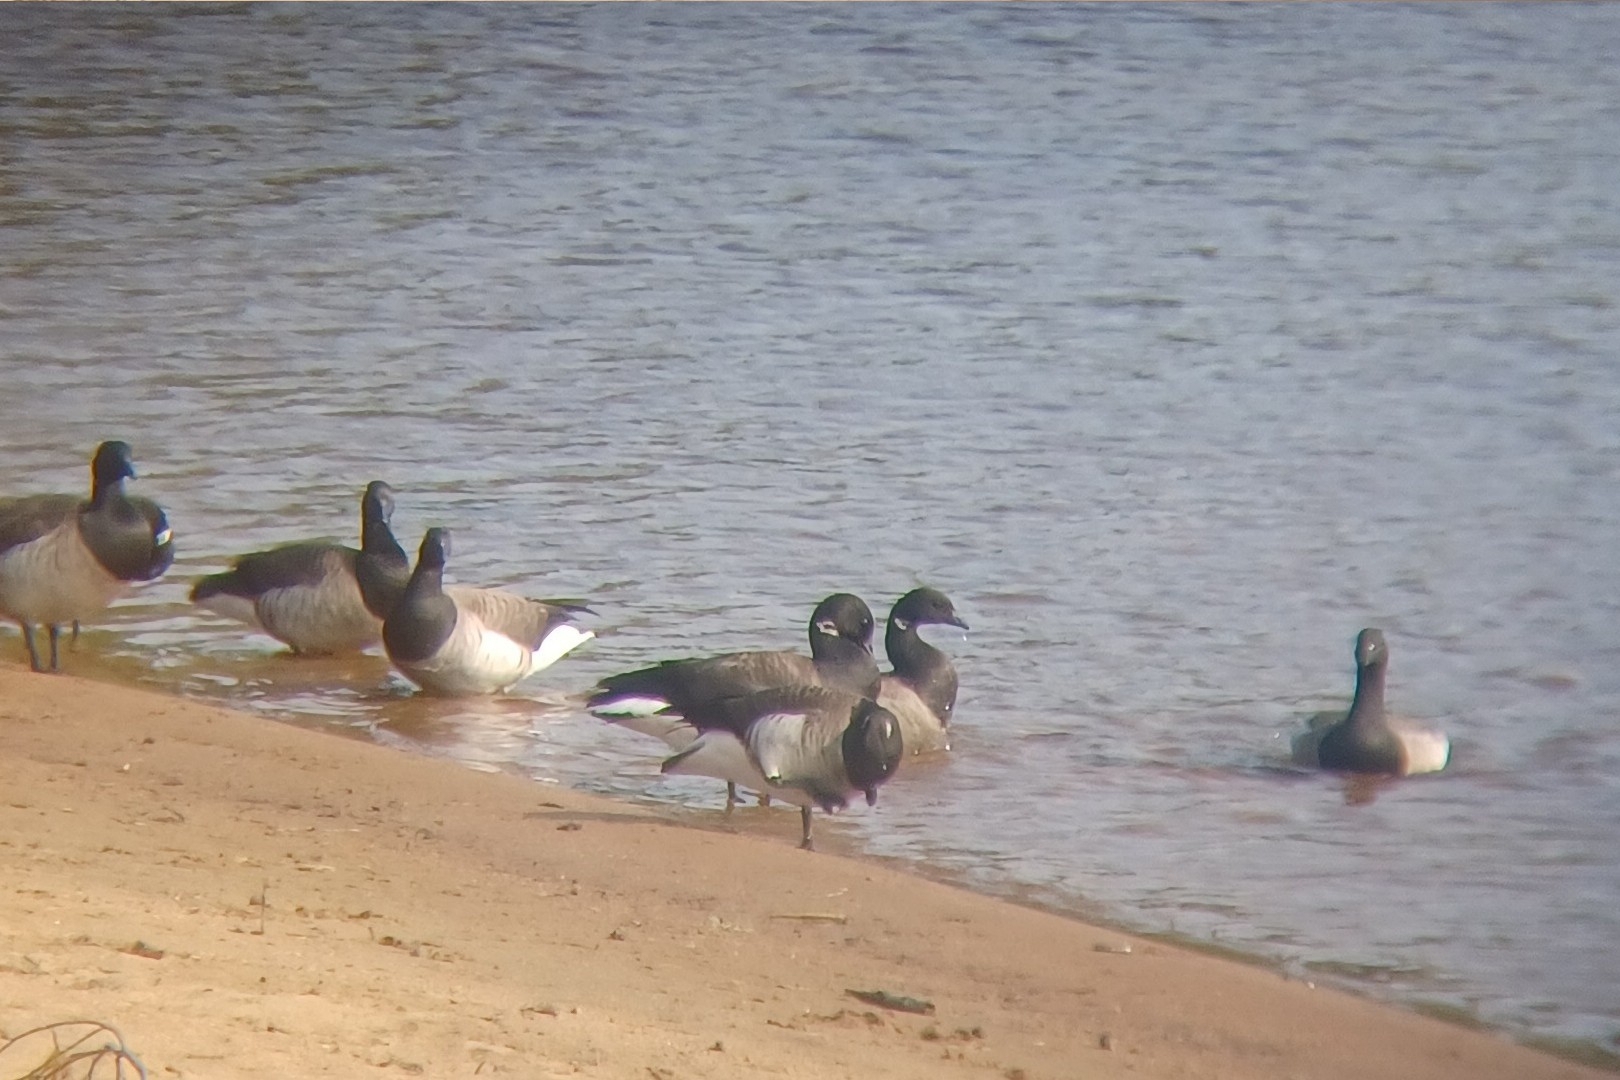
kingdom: Animalia
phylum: Chordata
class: Aves
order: Anseriformes
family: Anatidae
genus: Branta
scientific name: Branta bernicla
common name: Brant goose
